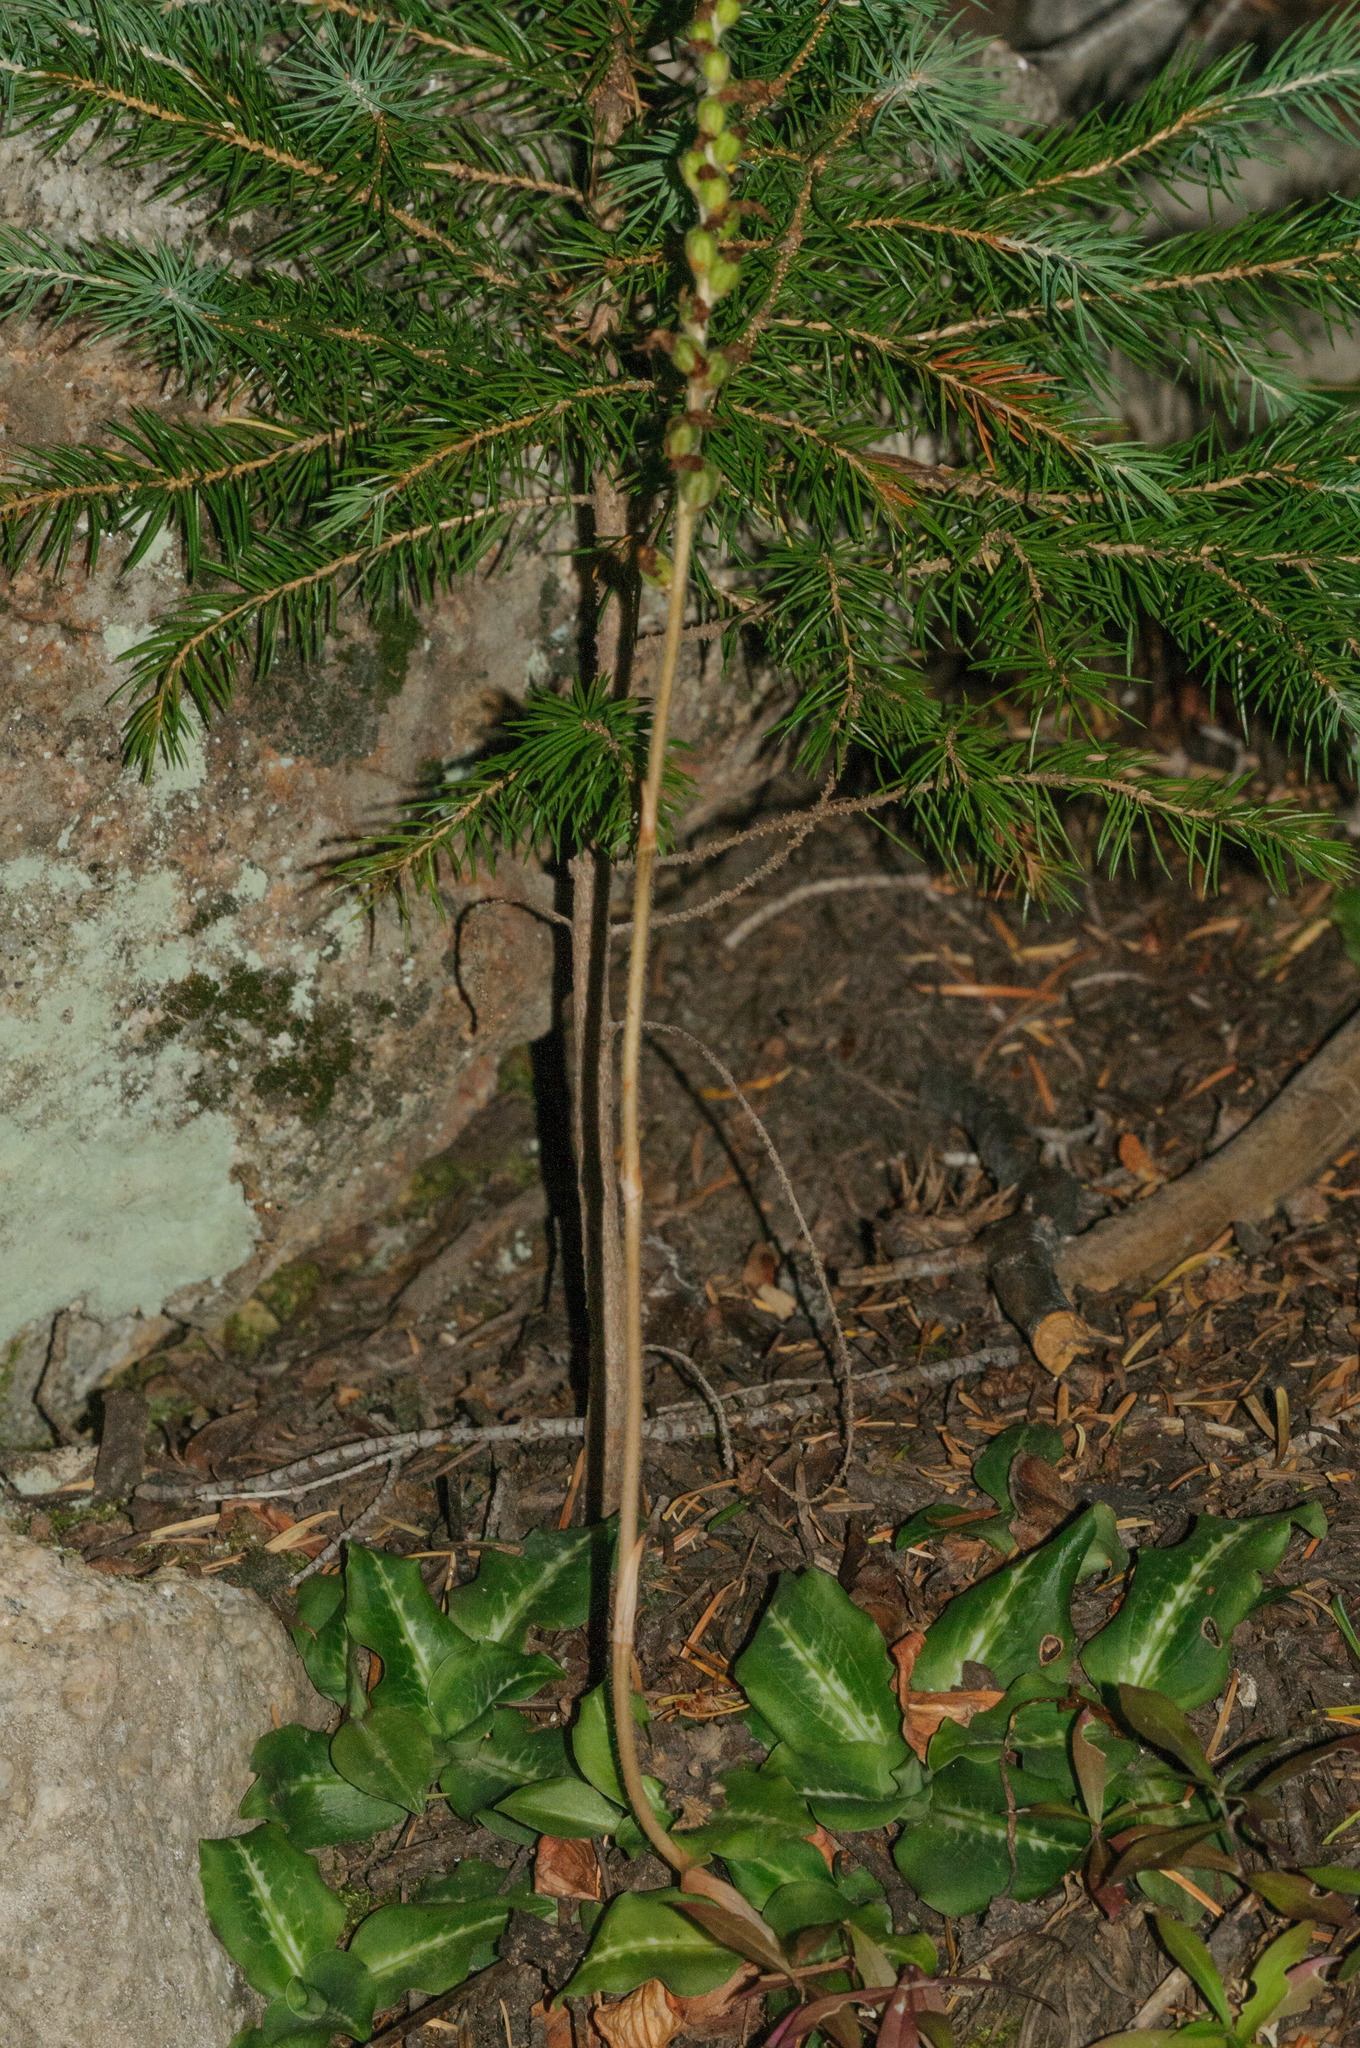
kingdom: Plantae
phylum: Tracheophyta
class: Liliopsida
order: Asparagales
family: Orchidaceae
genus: Goodyera
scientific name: Goodyera oblongifolia
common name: Giant rattlesnake-plantain
